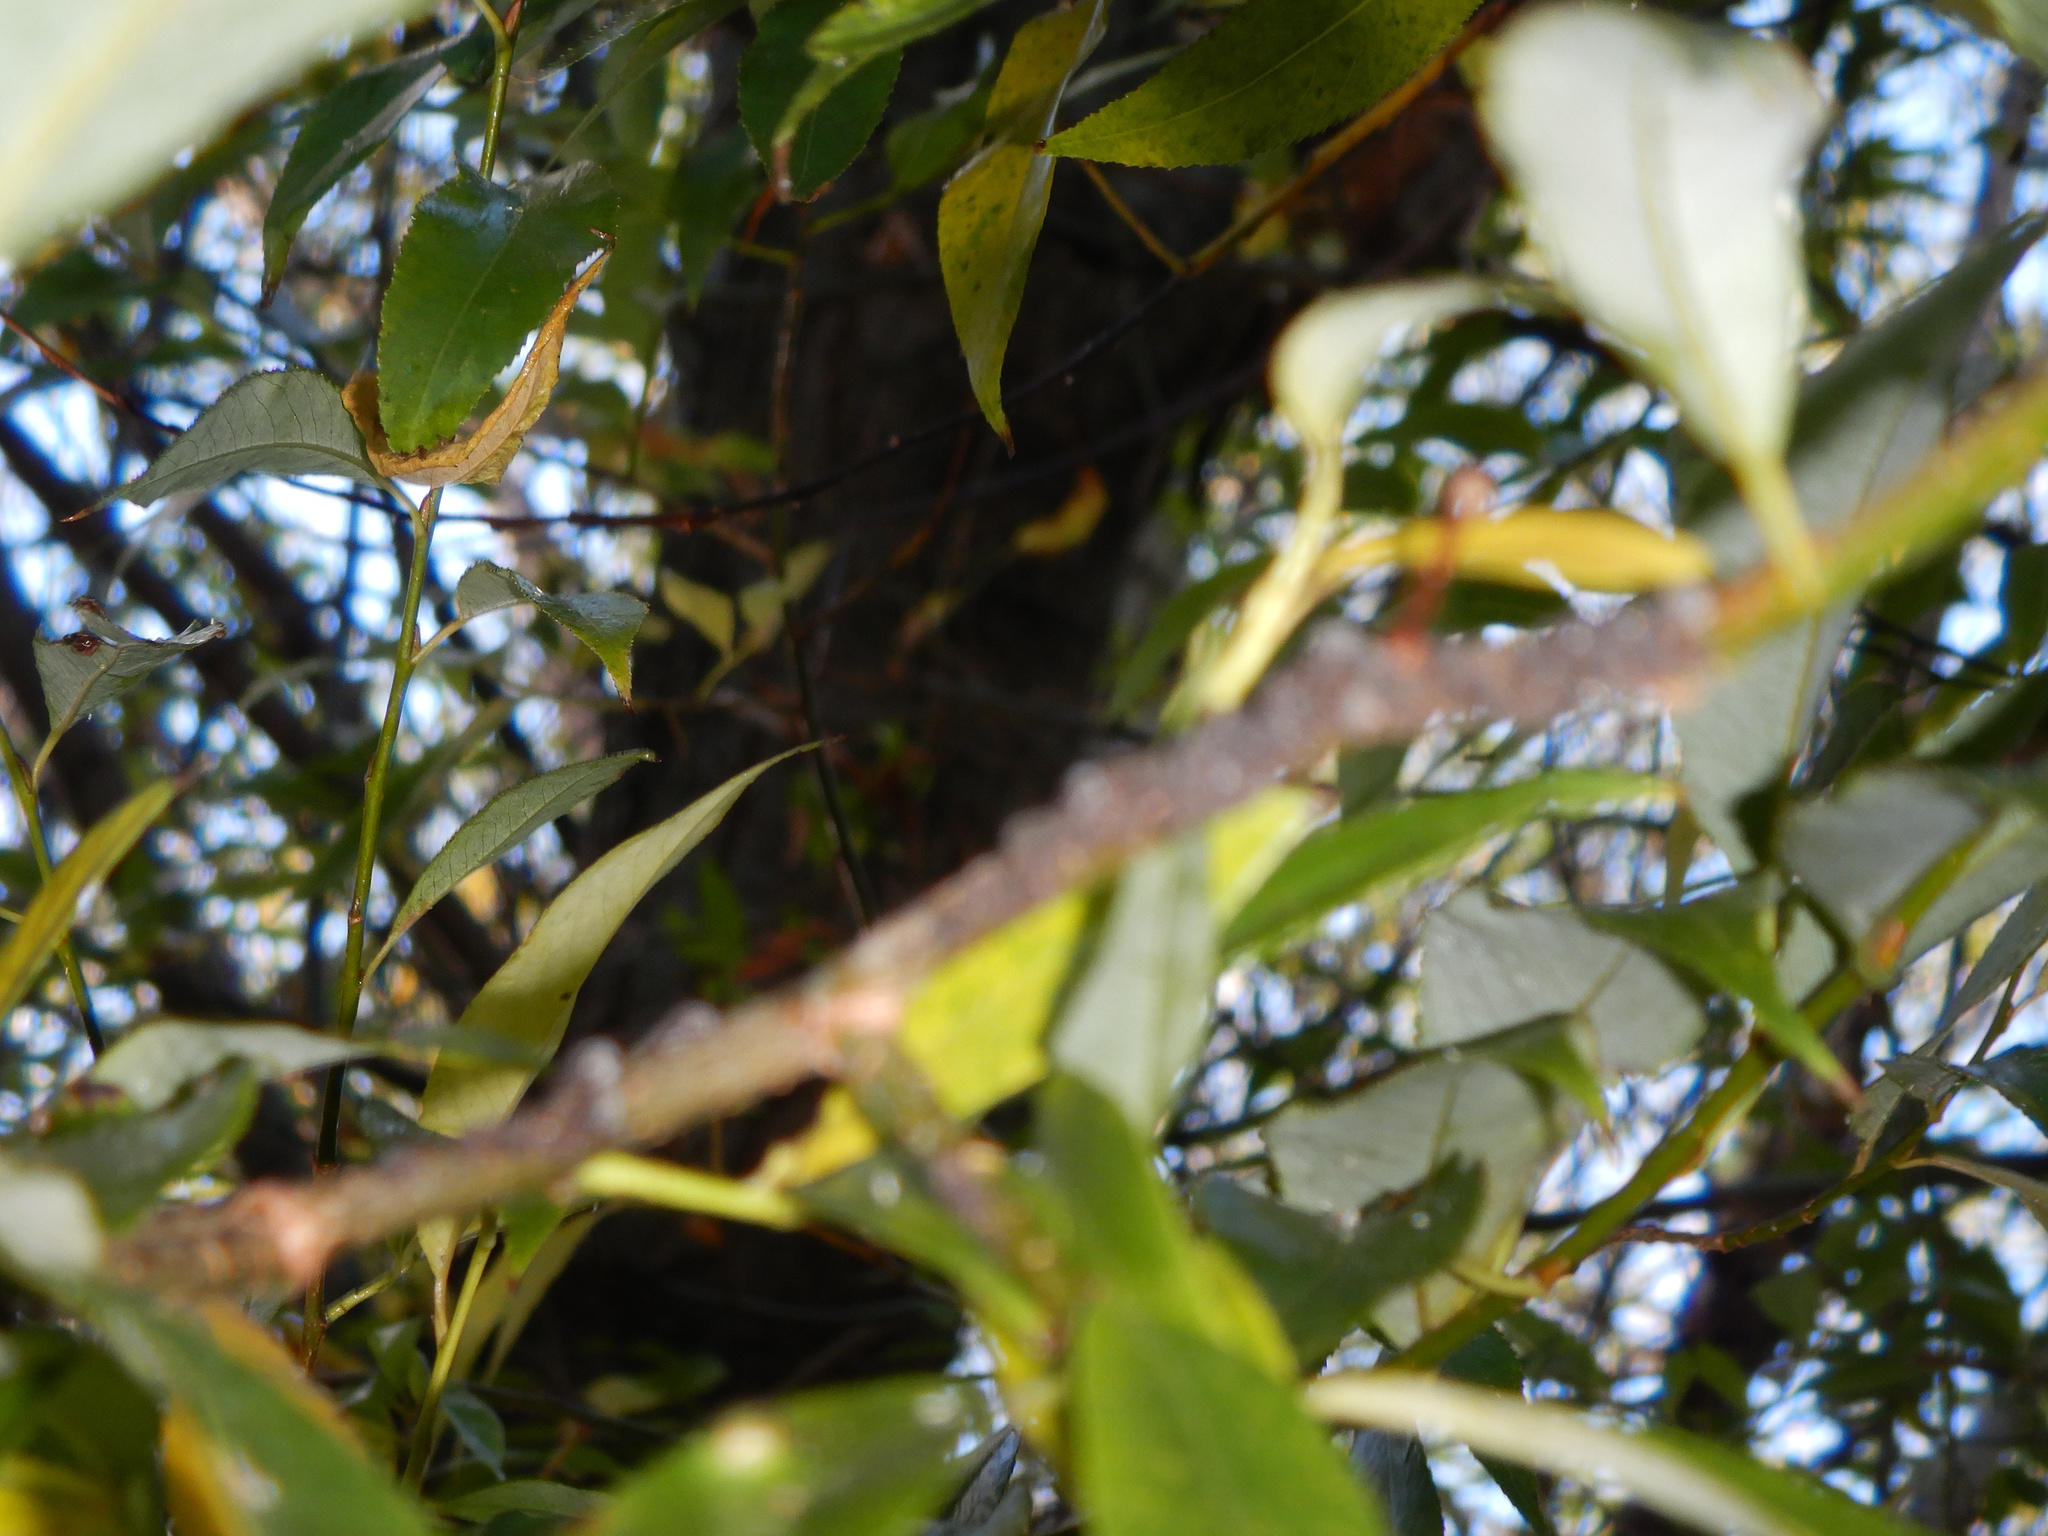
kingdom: Animalia
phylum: Arthropoda
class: Insecta
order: Hemiptera
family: Aphididae
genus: Tuberolachnus
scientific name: Tuberolachnus salignus
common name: Giant willow aphid
